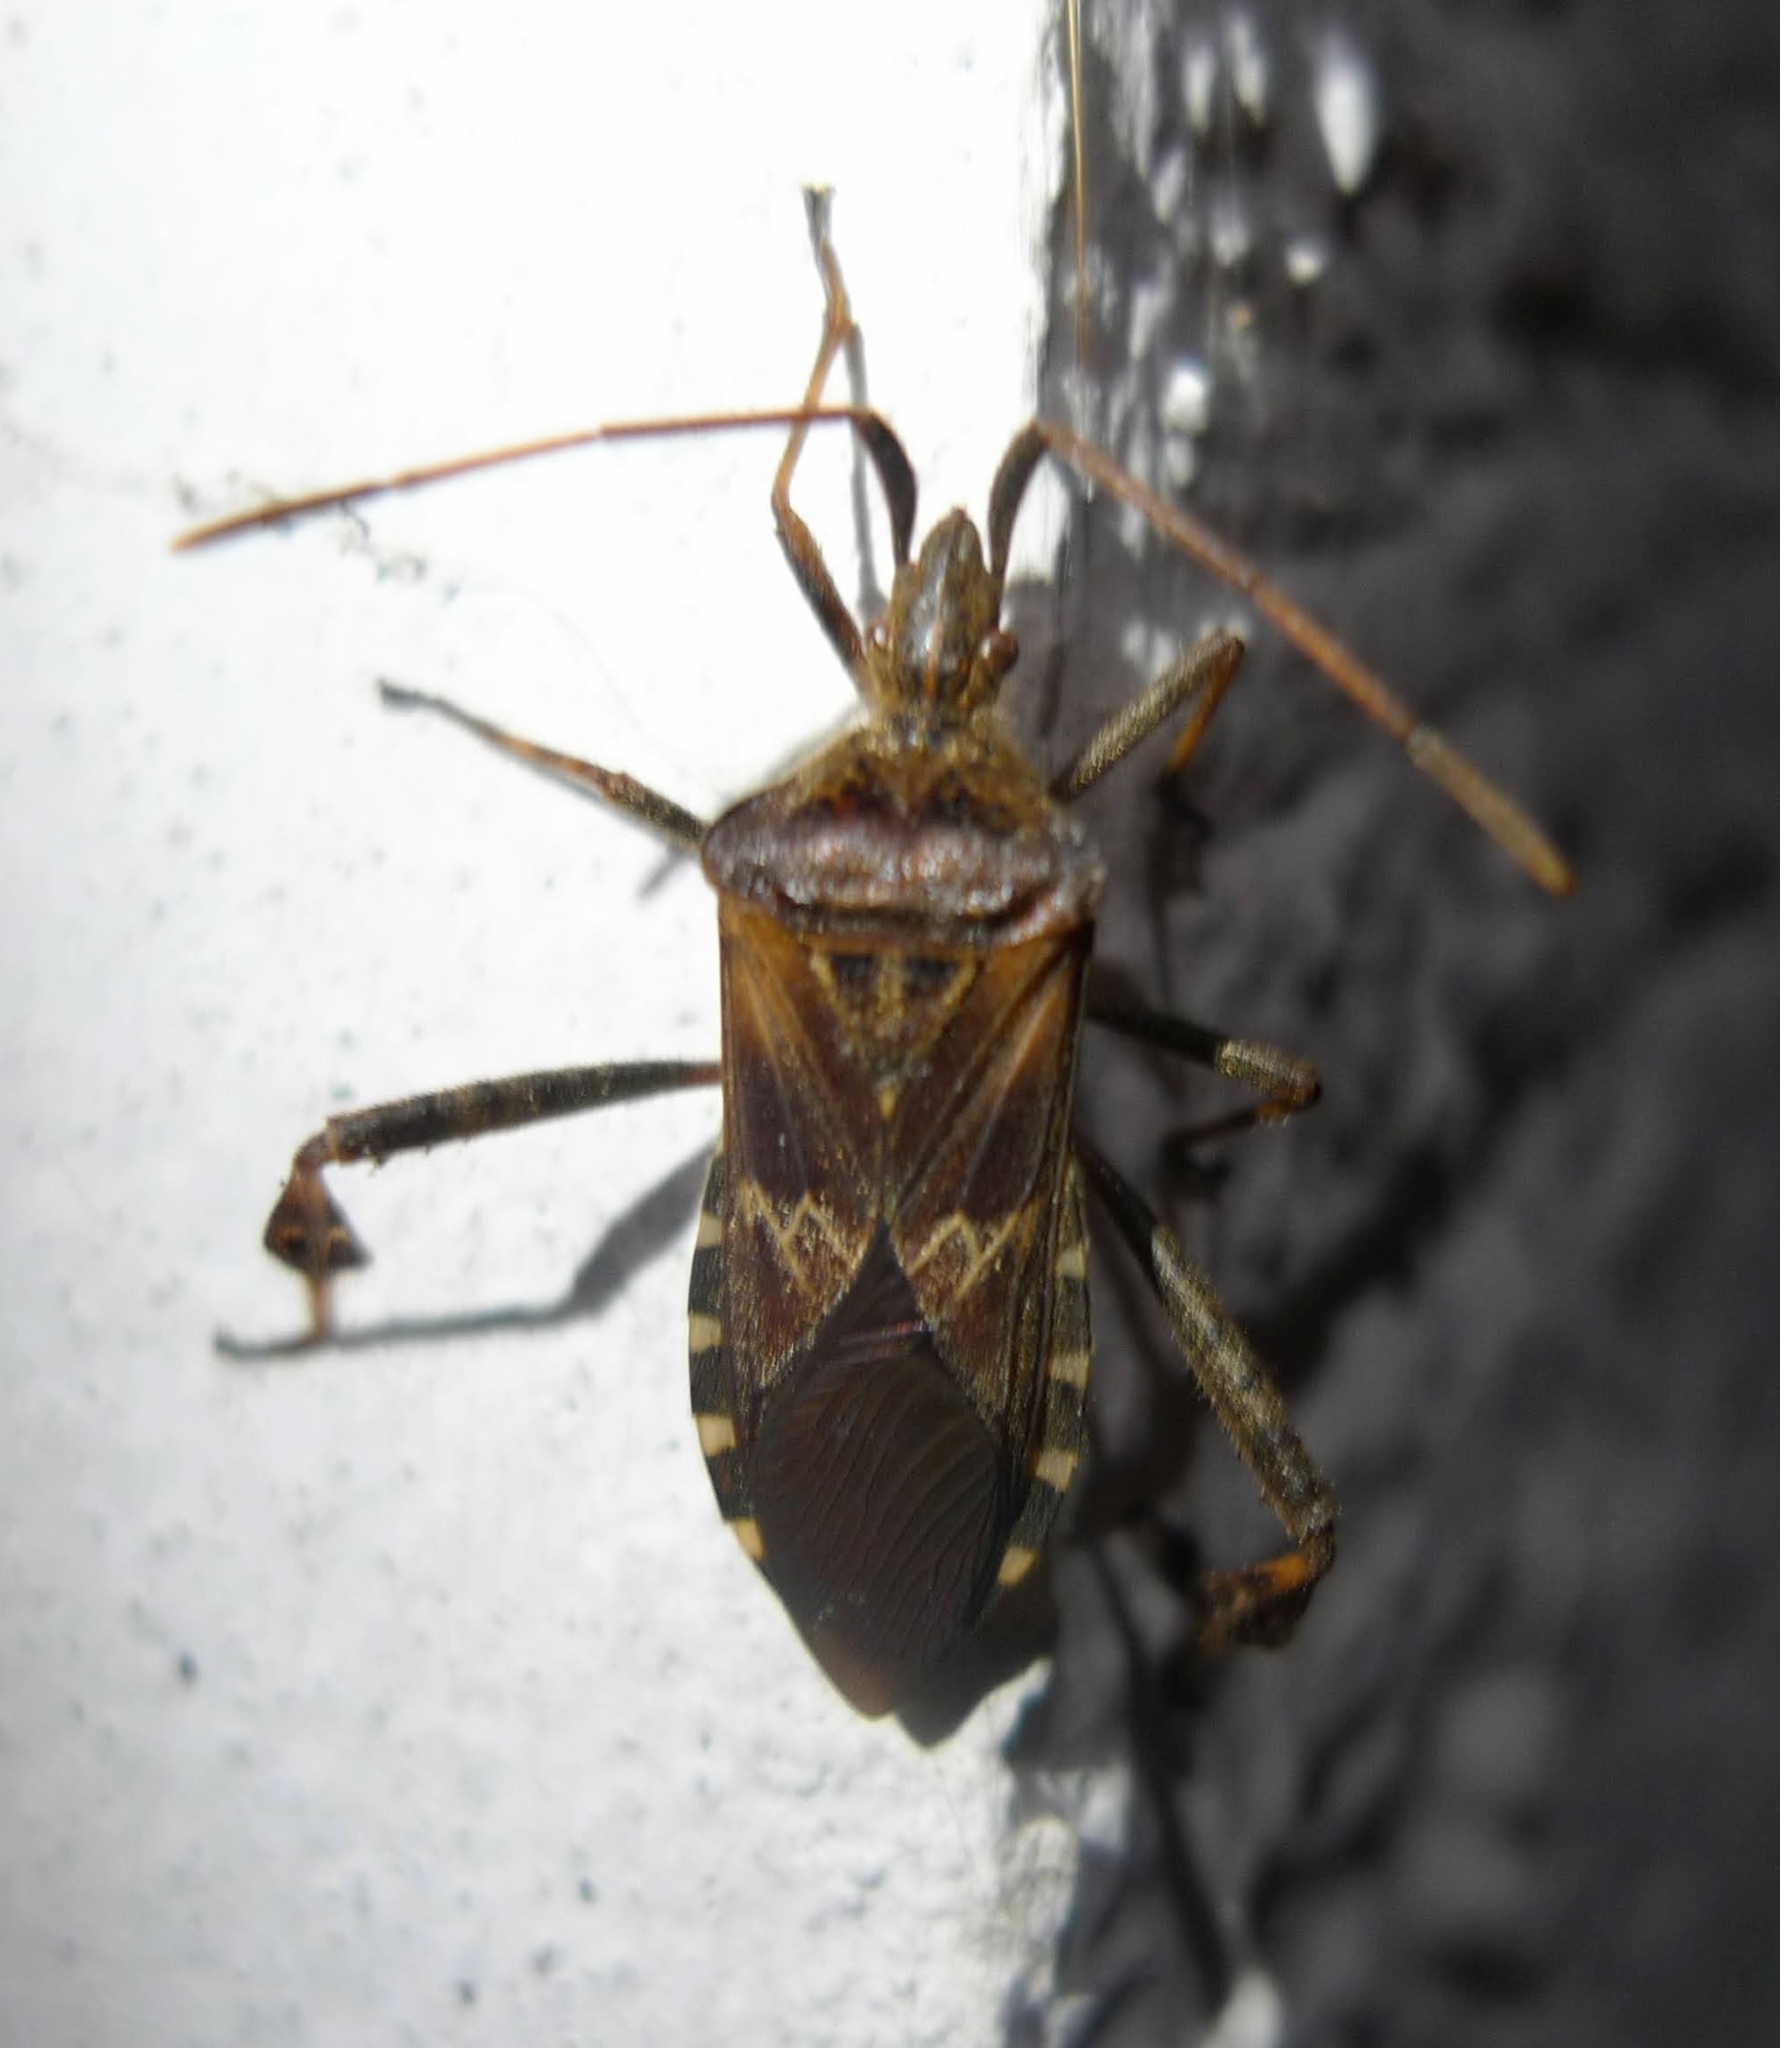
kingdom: Animalia
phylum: Arthropoda
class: Insecta
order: Hemiptera
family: Coreidae
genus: Leptoglossus
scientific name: Leptoglossus occidentalis
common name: Western conifer-seed bug
